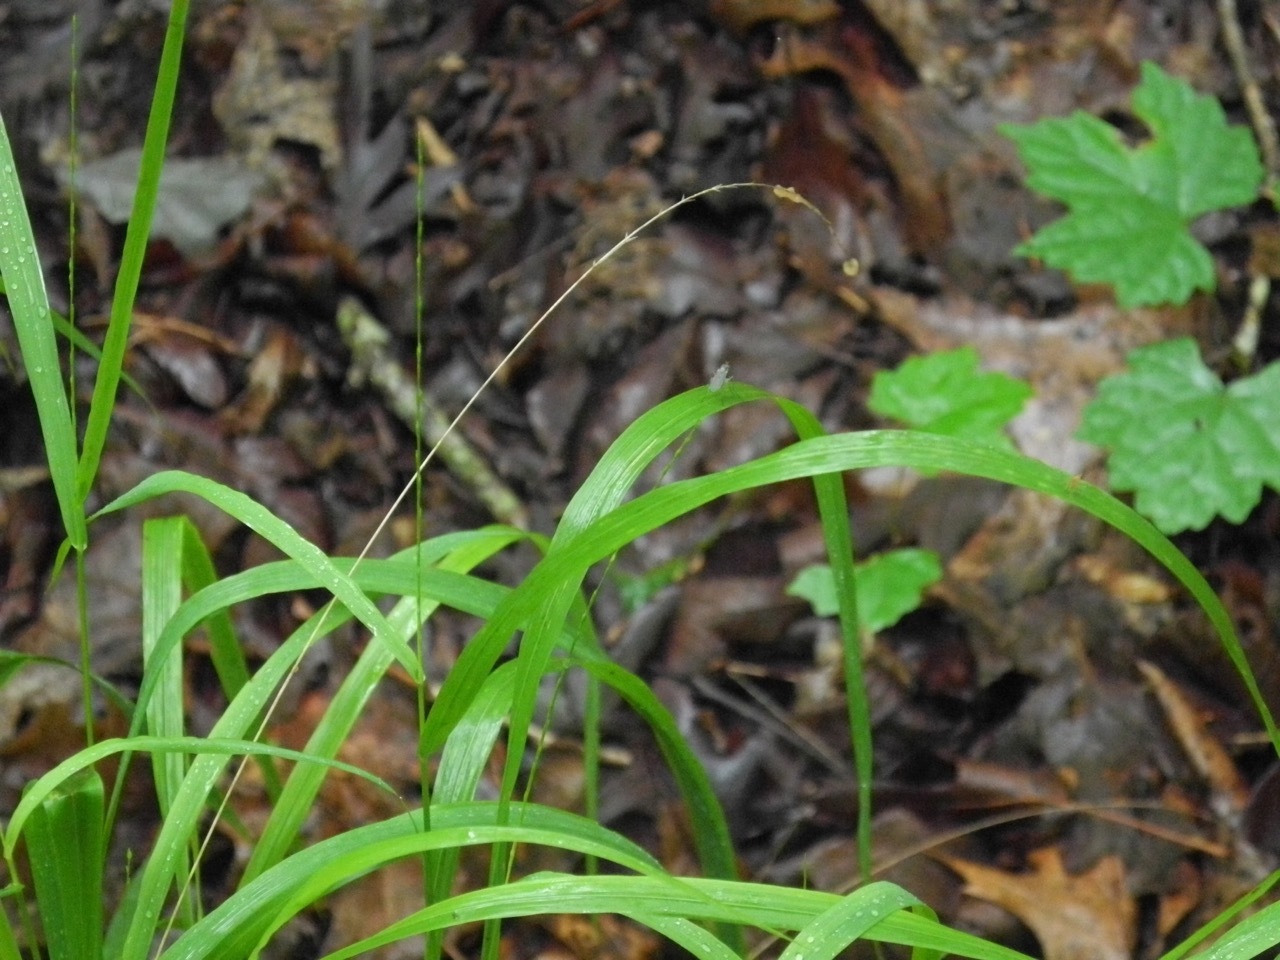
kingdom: Plantae
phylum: Tracheophyta
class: Liliopsida
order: Poales
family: Poaceae
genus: Chasmanthium
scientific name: Chasmanthium laxum
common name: Slender chasmanthium
